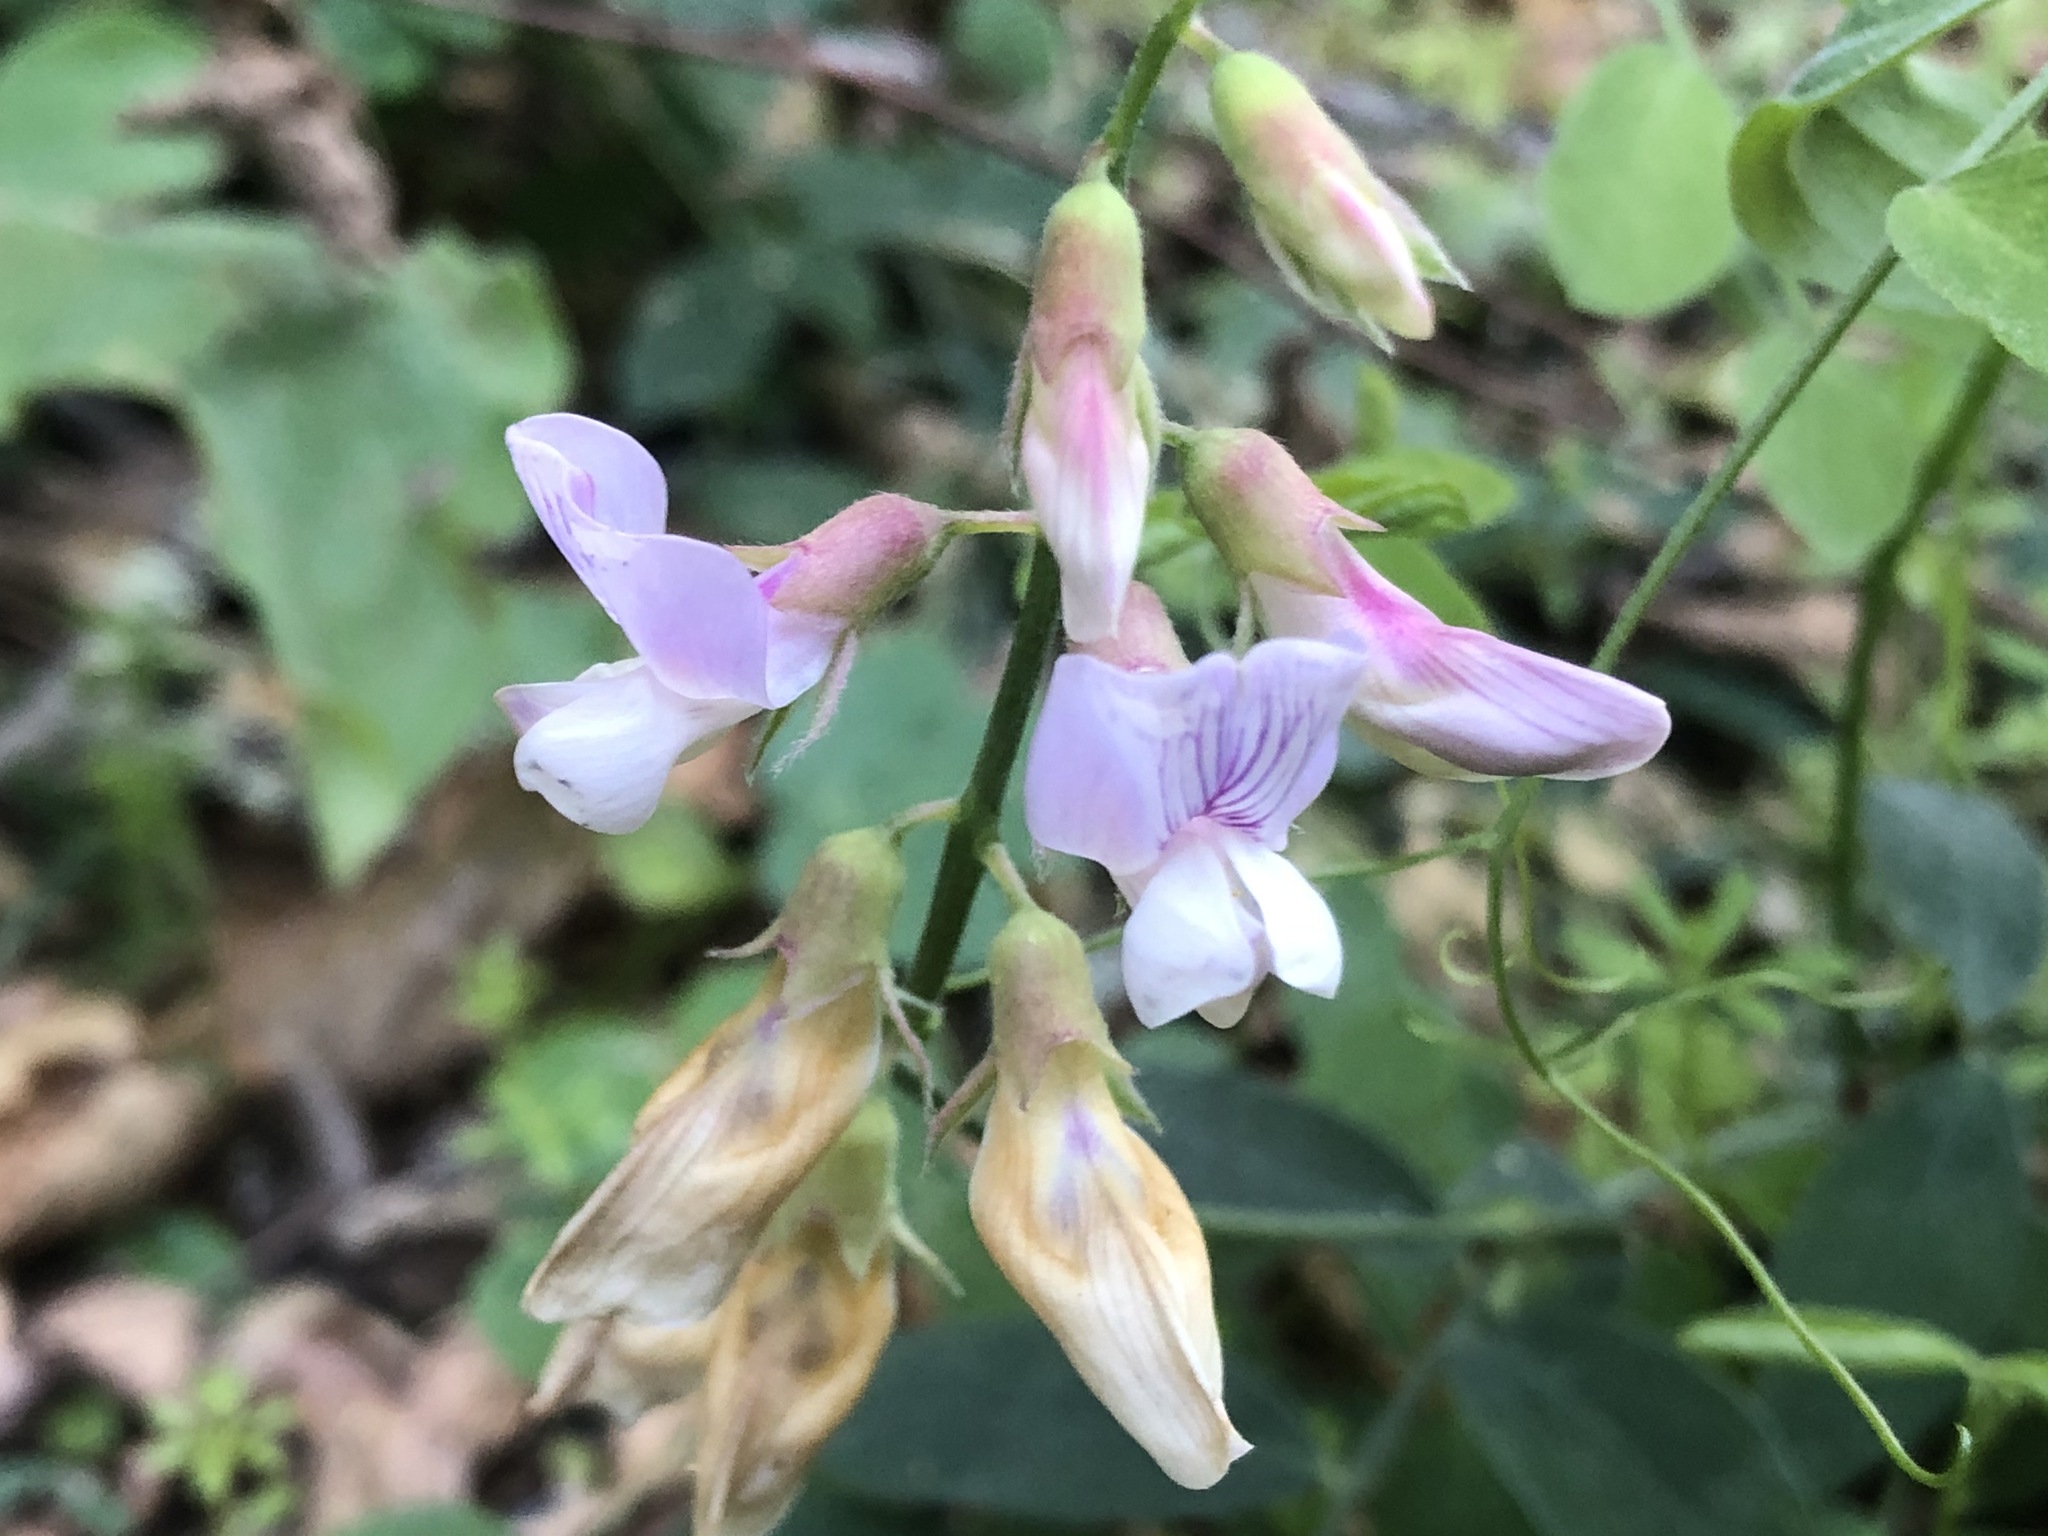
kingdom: Plantae
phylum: Tracheophyta
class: Magnoliopsida
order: Fabales
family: Fabaceae
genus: Lathyrus
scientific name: Lathyrus vestitus
